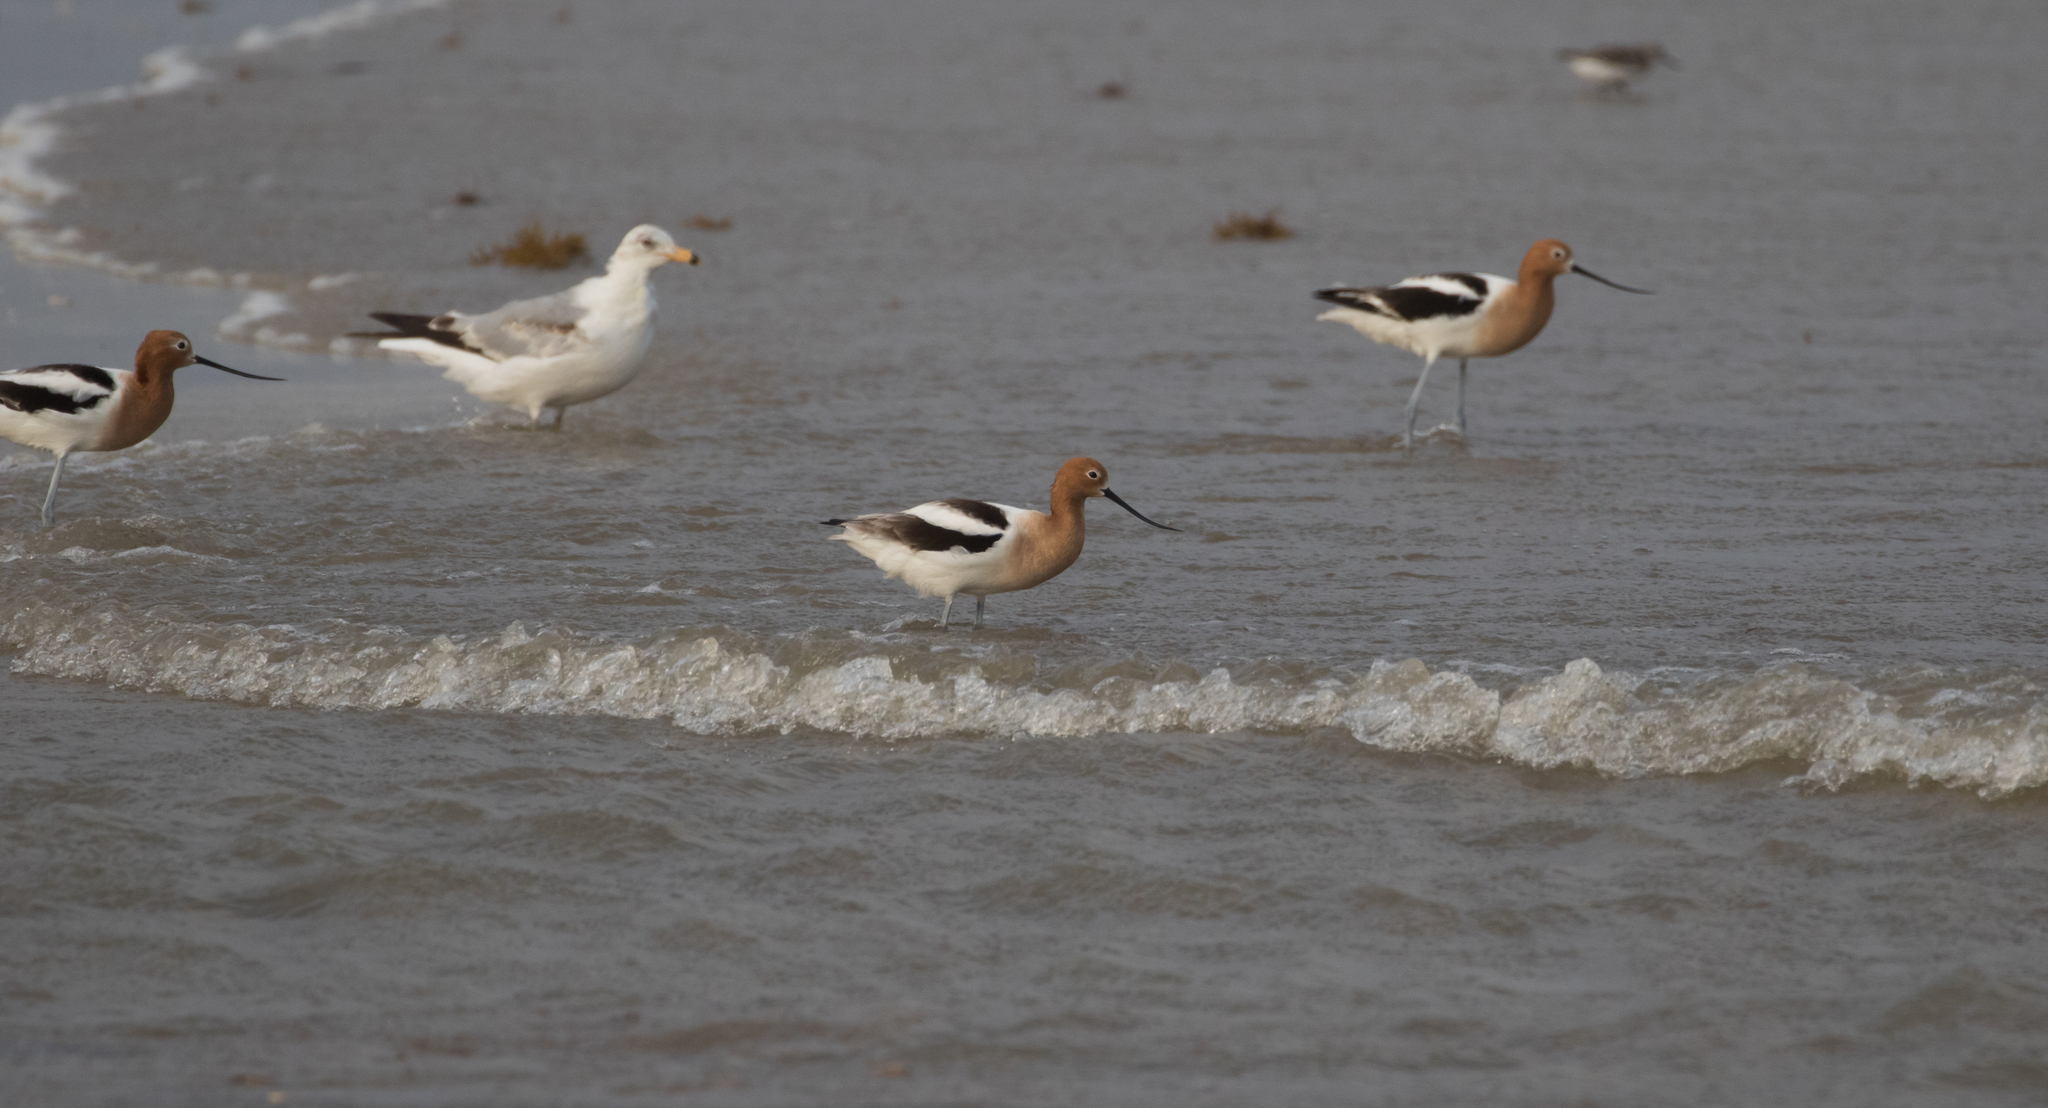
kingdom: Animalia
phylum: Chordata
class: Aves
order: Charadriiformes
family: Recurvirostridae
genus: Recurvirostra
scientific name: Recurvirostra americana
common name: American avocet
